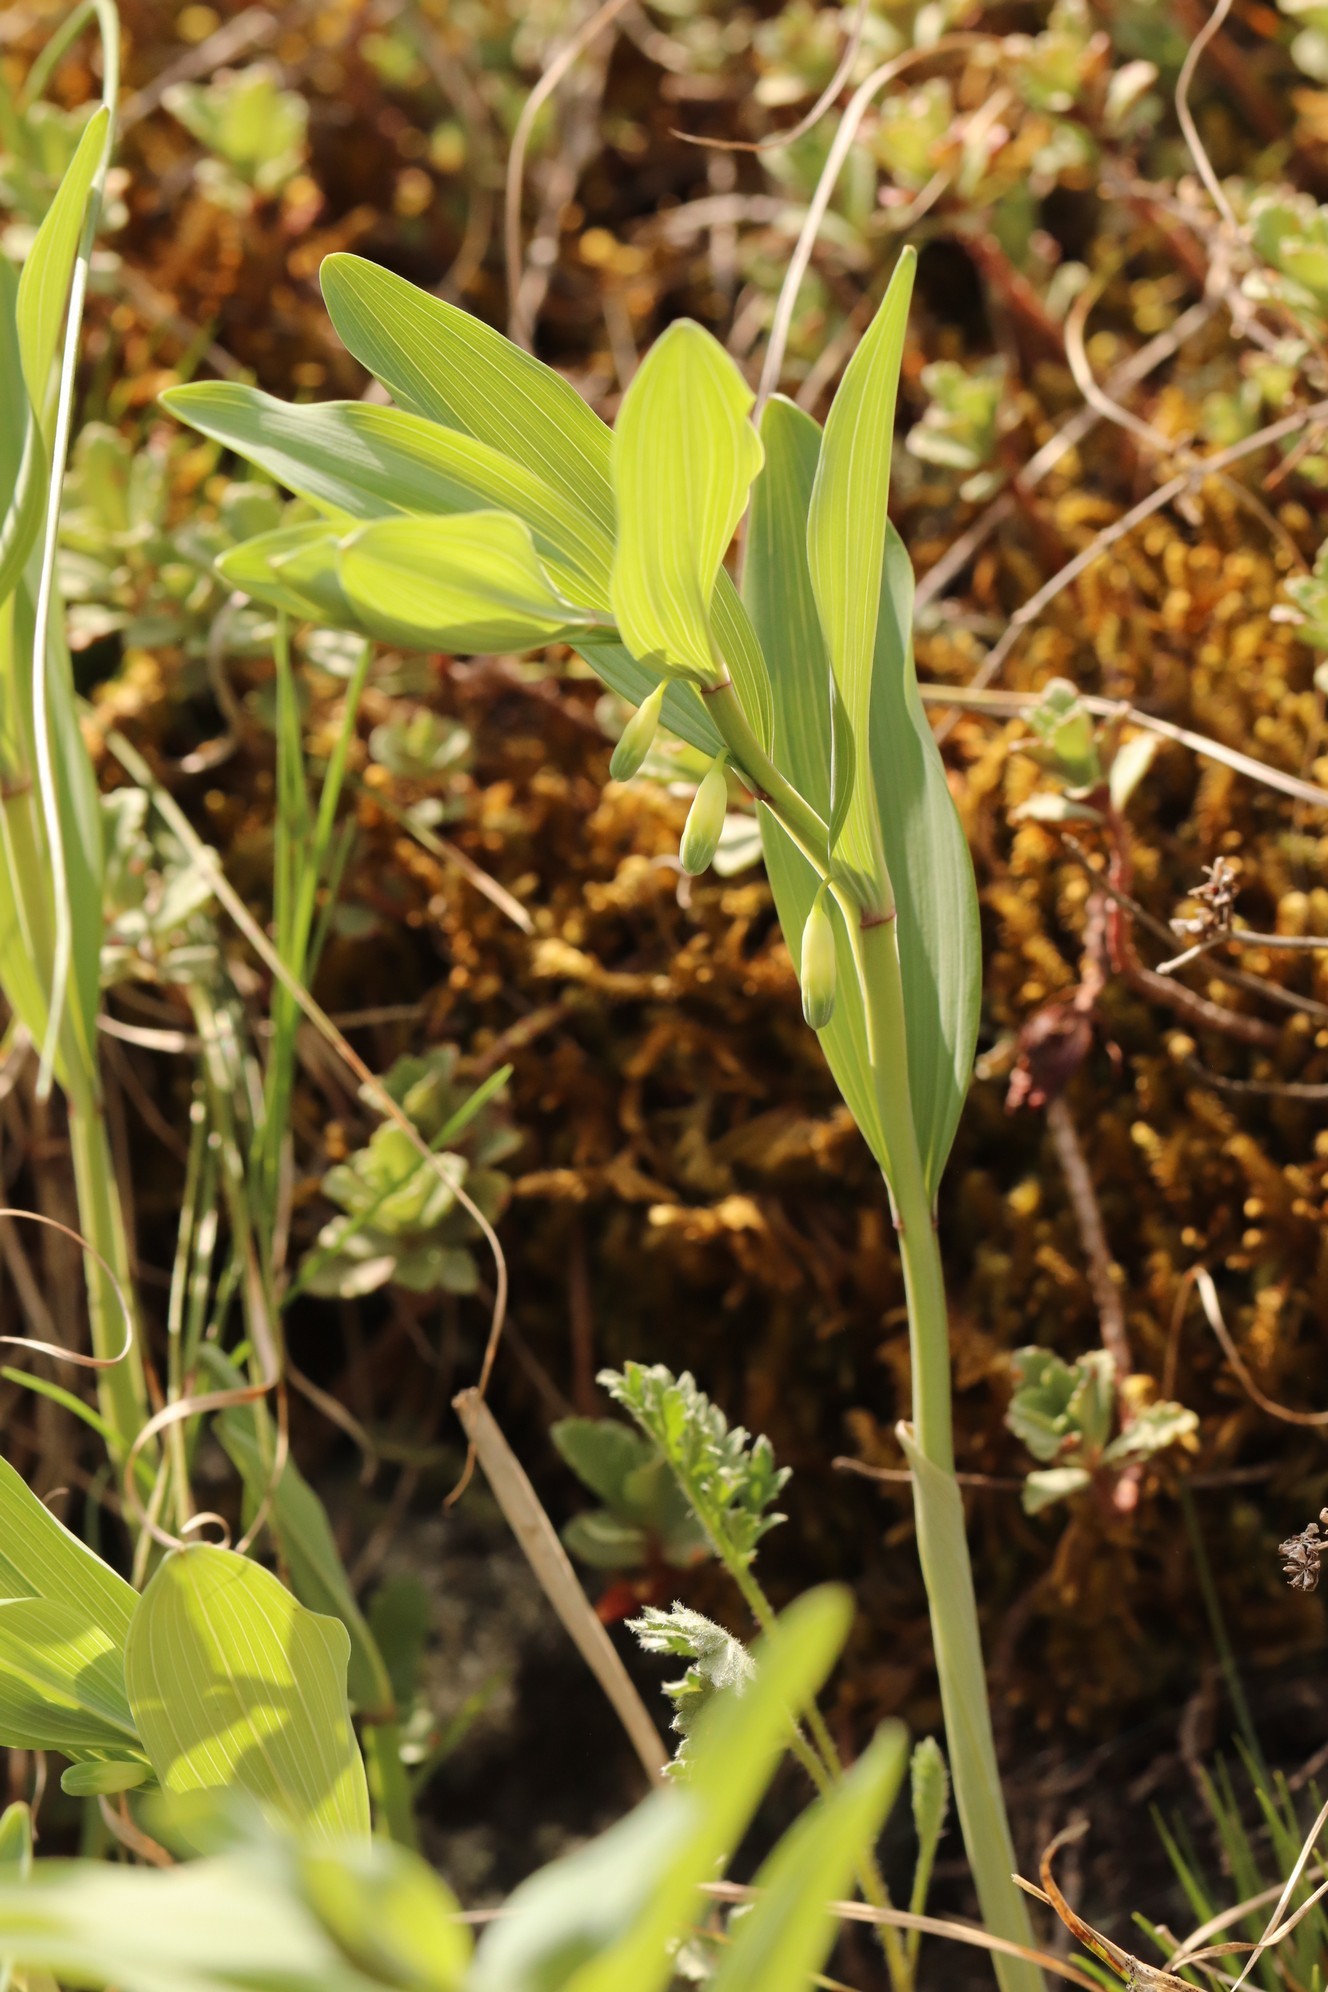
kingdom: Plantae
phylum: Tracheophyta
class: Liliopsida
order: Asparagales
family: Asparagaceae
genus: Polygonatum
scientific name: Polygonatum odoratum
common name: Angular solomon's-seal
